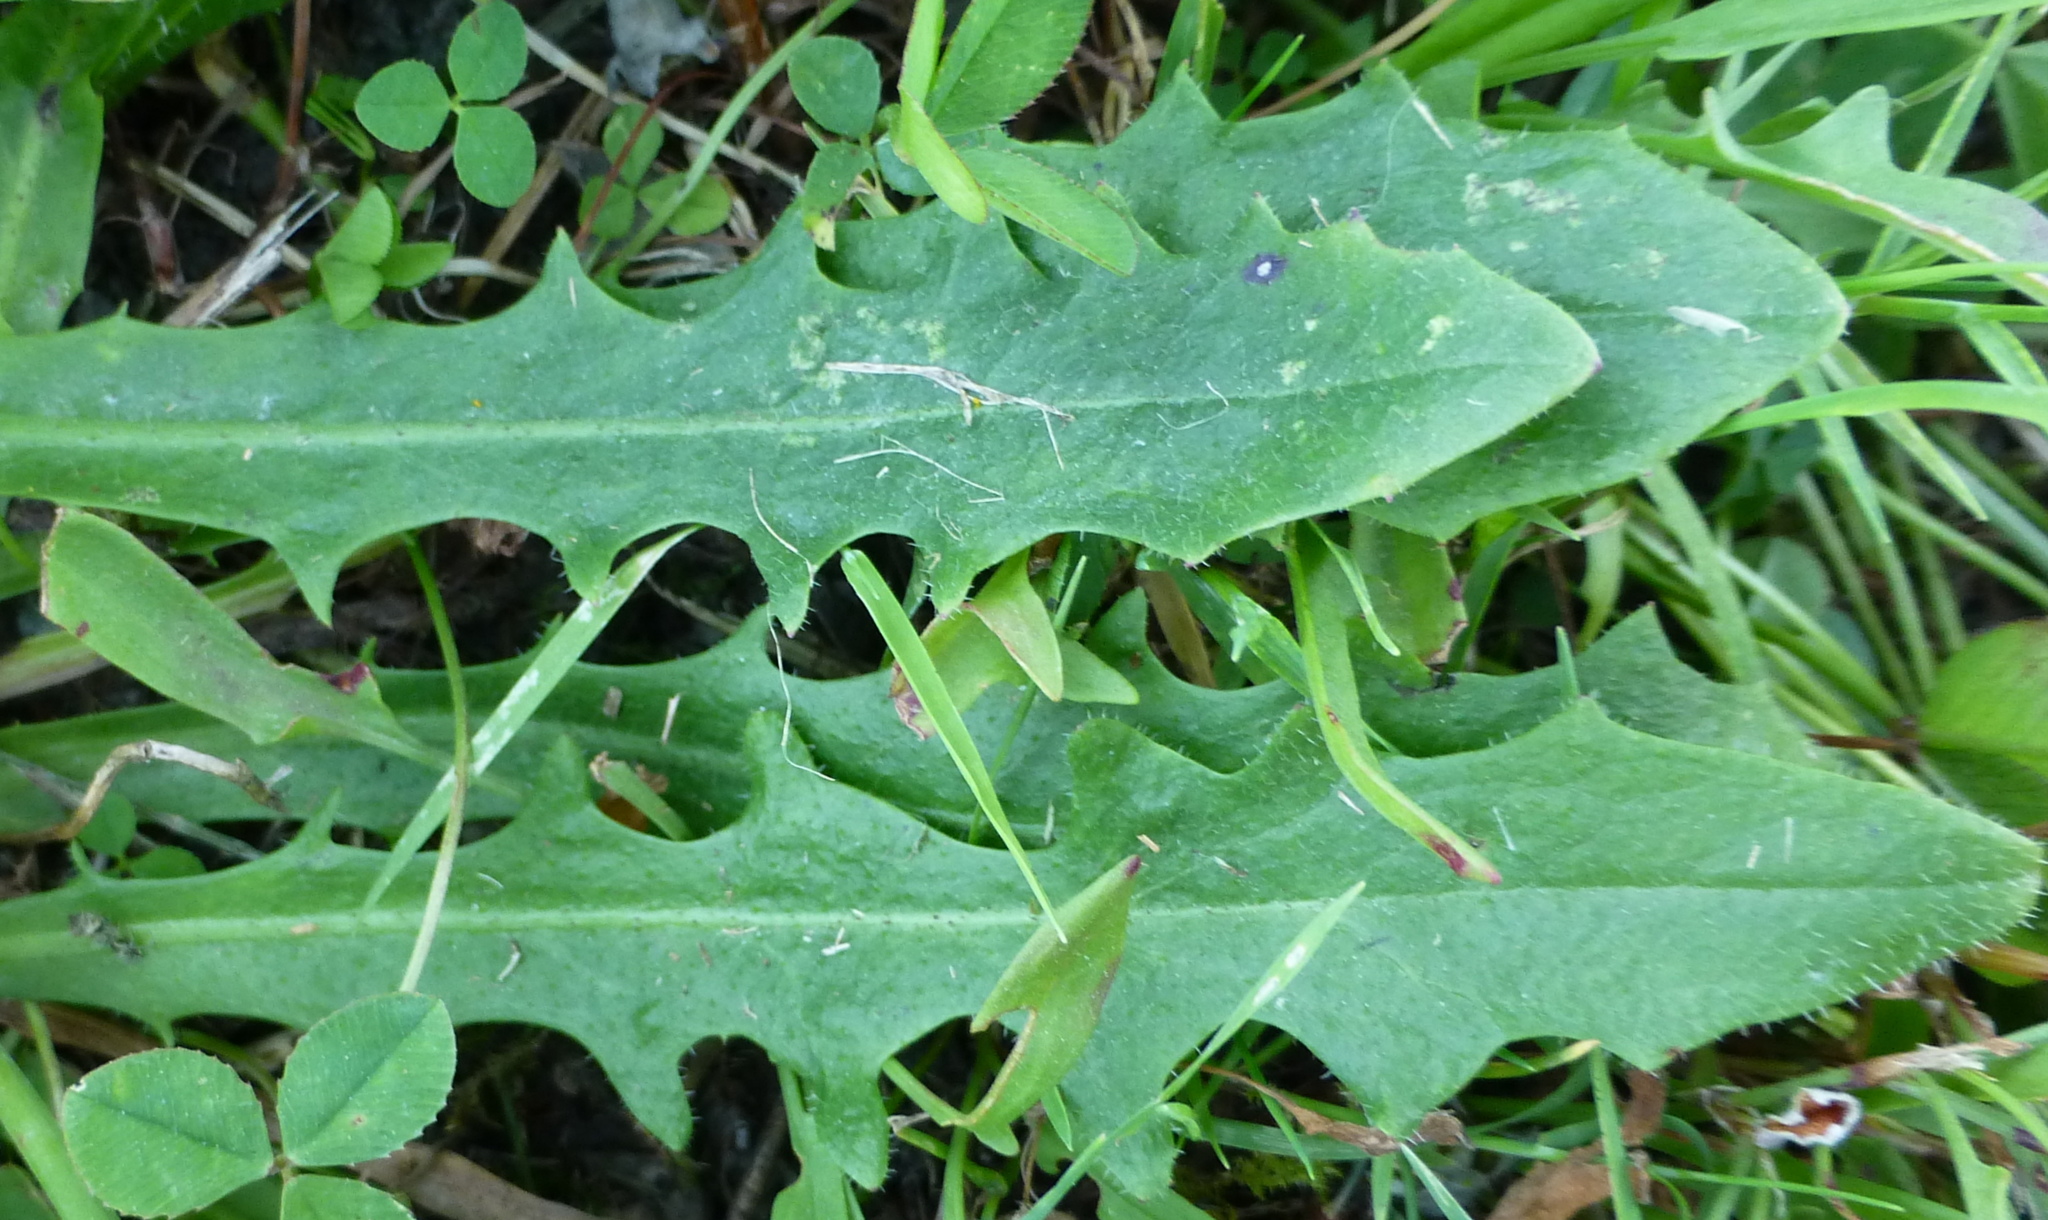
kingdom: Plantae
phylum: Tracheophyta
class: Magnoliopsida
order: Asterales
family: Asteraceae
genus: Hypochaeris
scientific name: Hypochaeris radicata
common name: Flatweed
